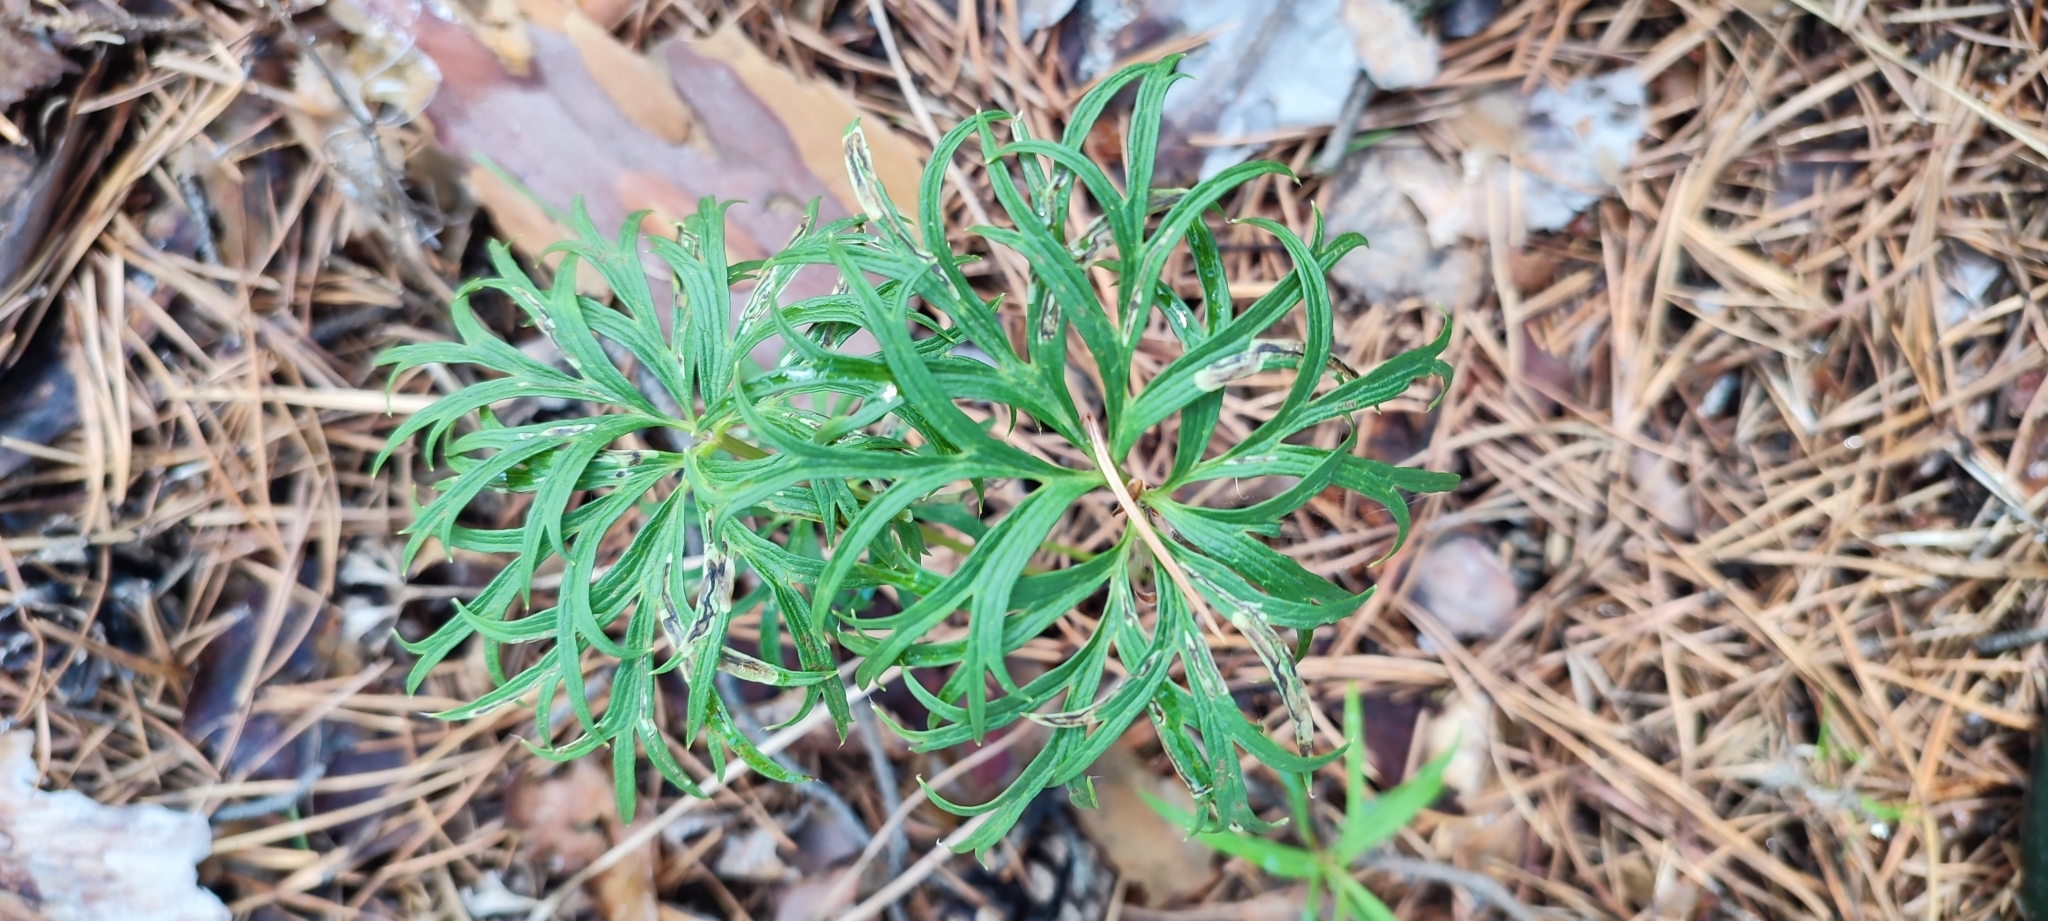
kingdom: Plantae
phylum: Tracheophyta
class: Magnoliopsida
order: Ranunculales
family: Ranunculaceae
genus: Pulsatilla
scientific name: Pulsatilla patens
